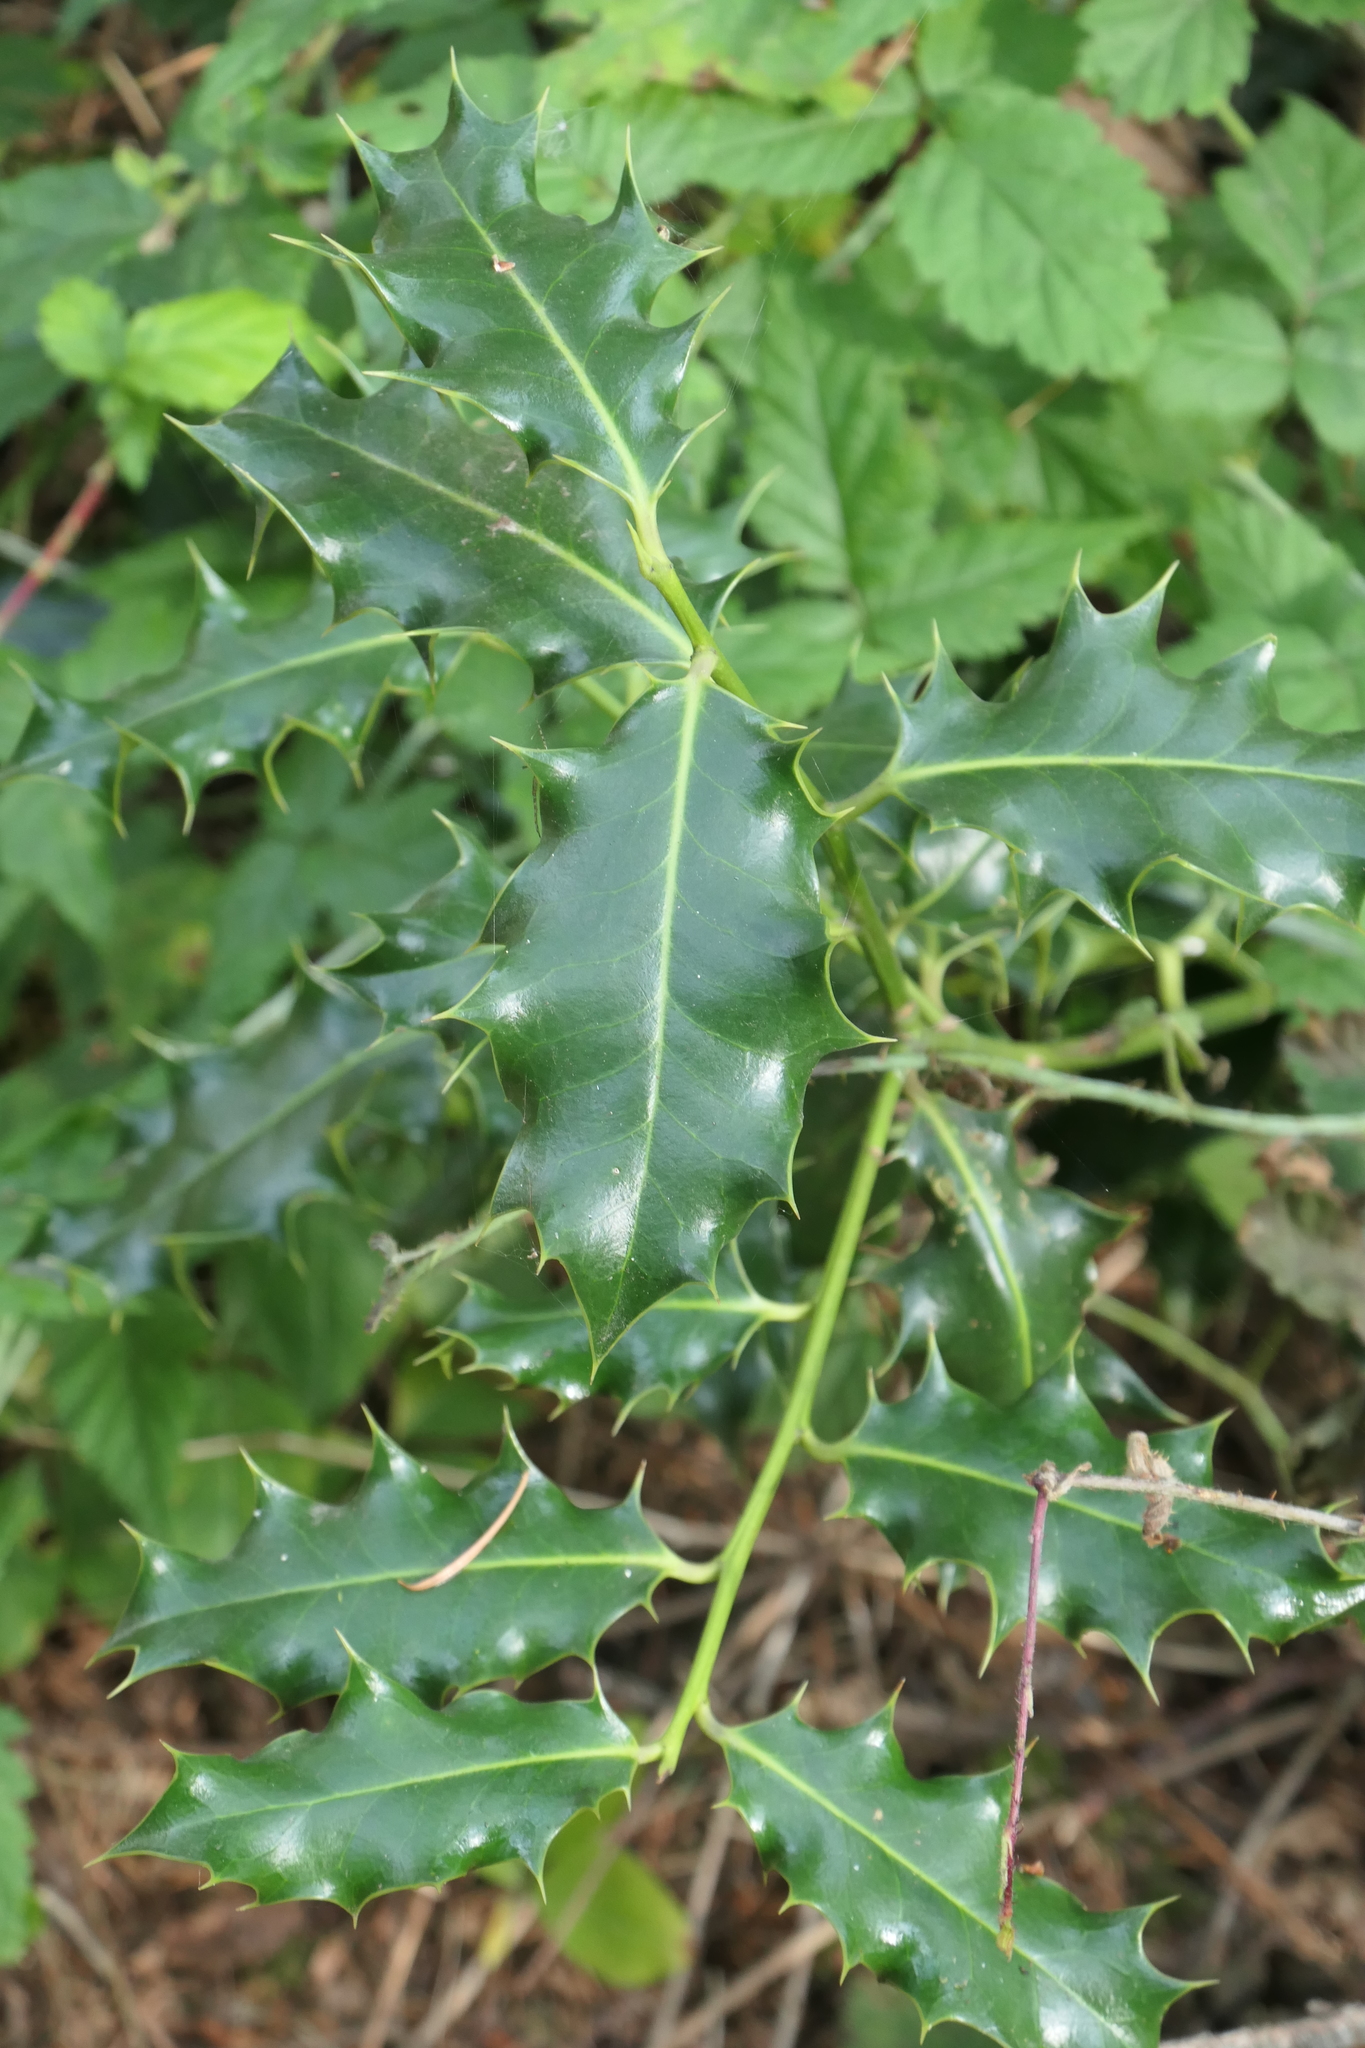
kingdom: Plantae
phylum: Tracheophyta
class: Magnoliopsida
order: Aquifoliales
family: Aquifoliaceae
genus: Ilex
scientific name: Ilex aquifolium
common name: English holly
